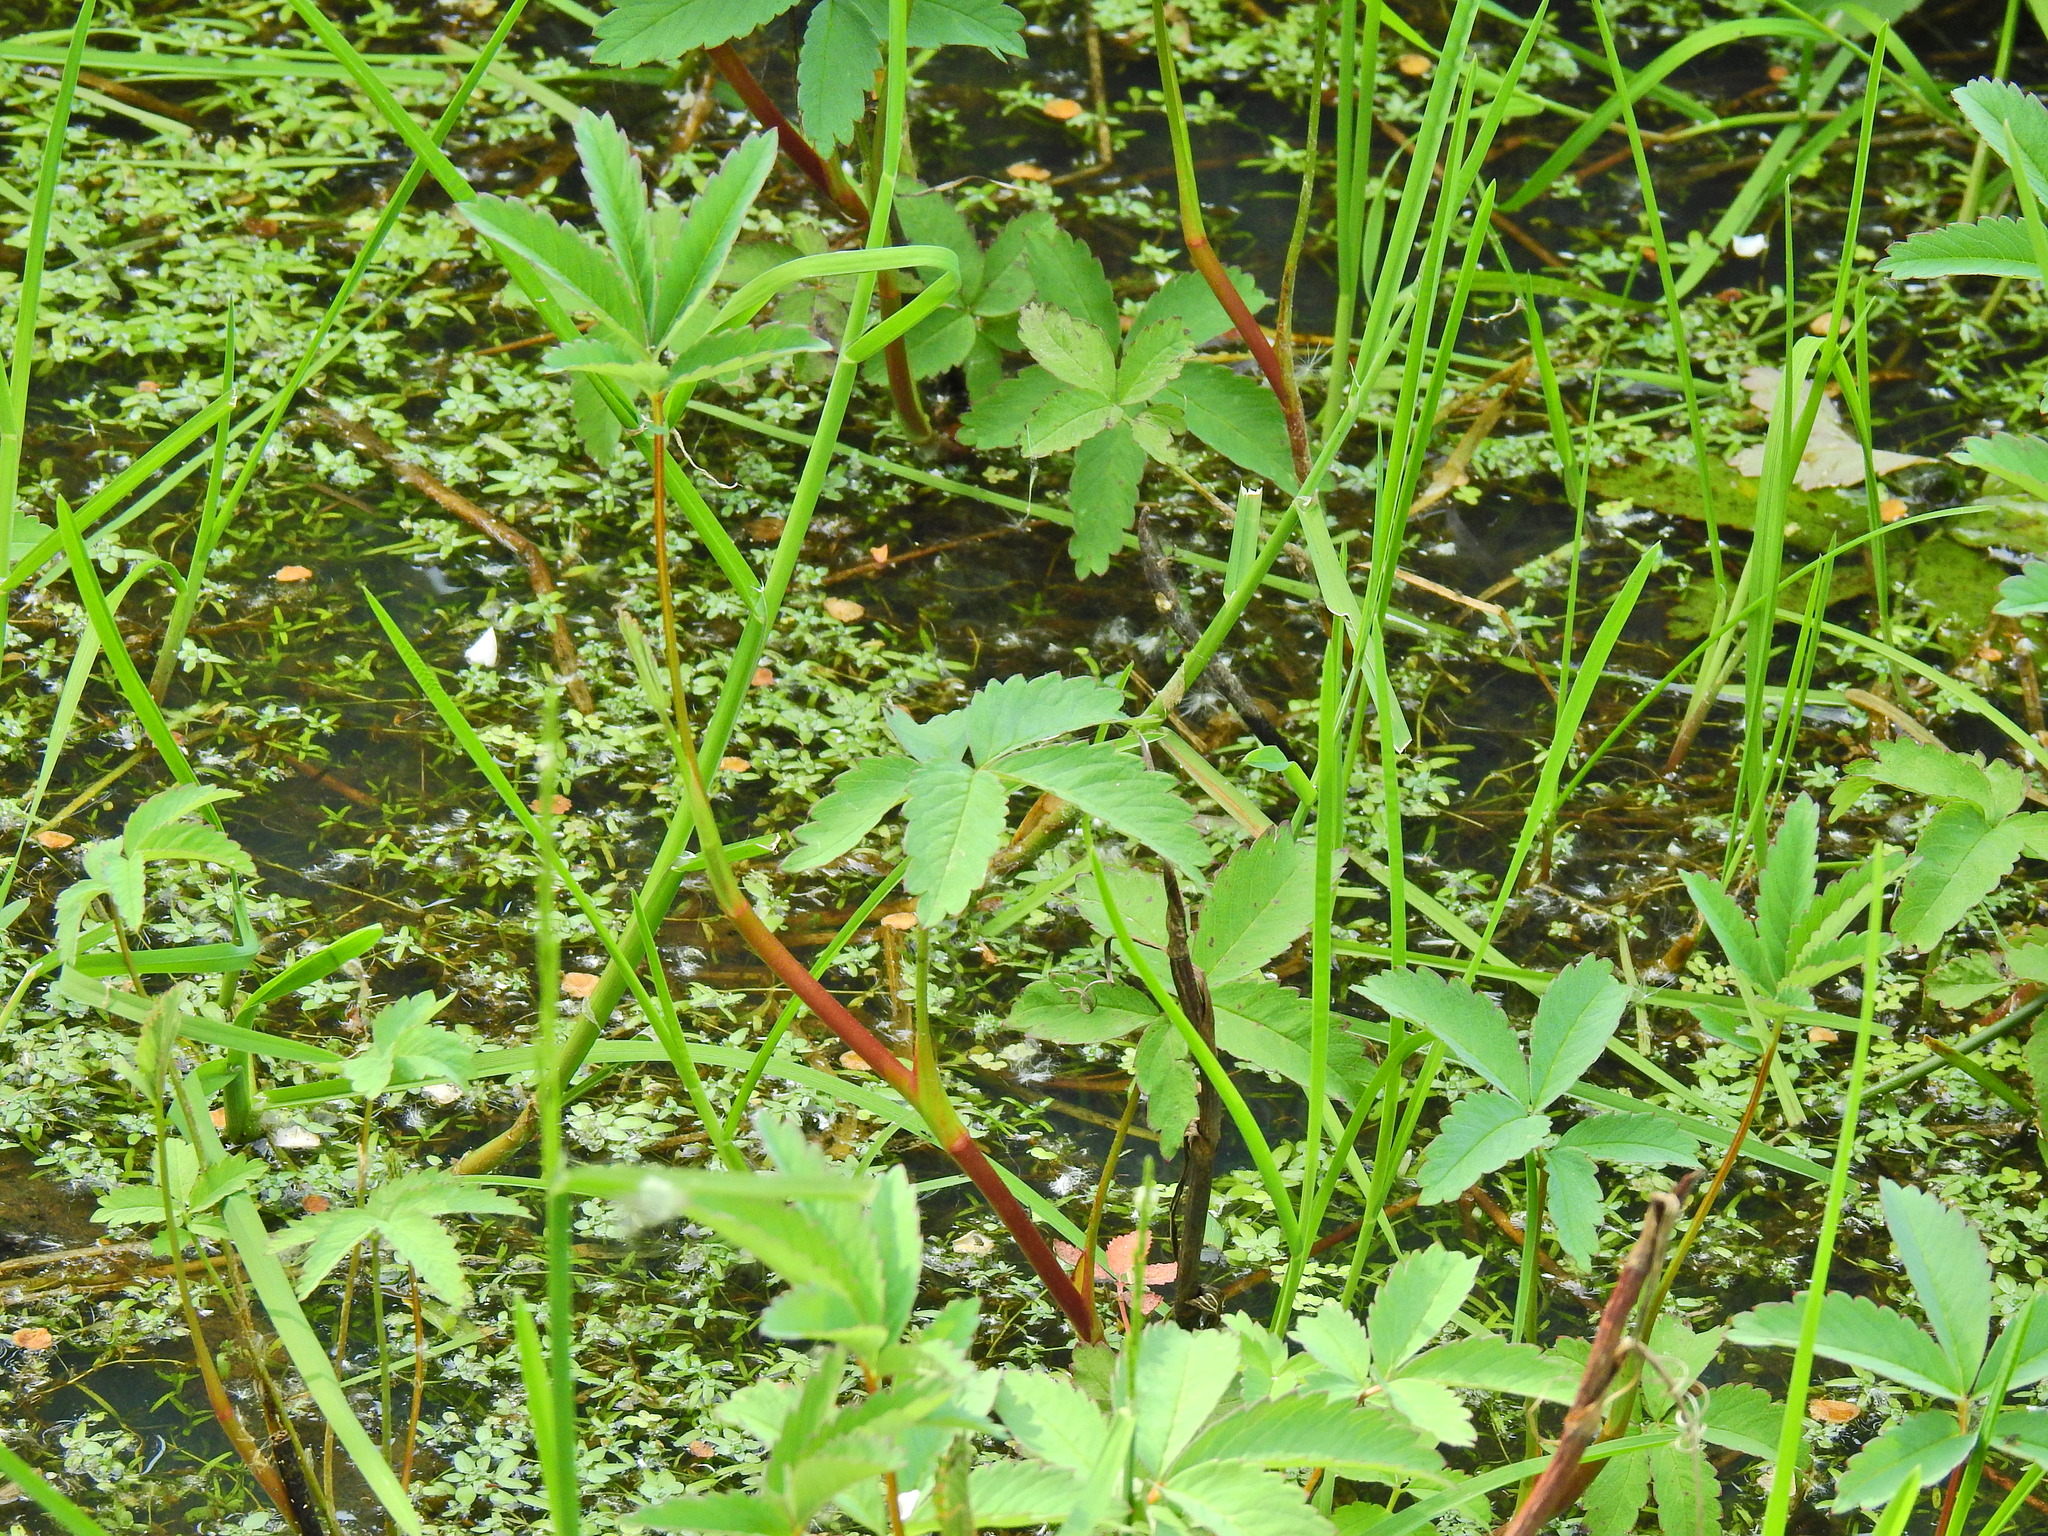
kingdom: Plantae
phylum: Tracheophyta
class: Magnoliopsida
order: Rosales
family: Rosaceae
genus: Comarum
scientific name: Comarum palustre
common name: Marsh cinquefoil
